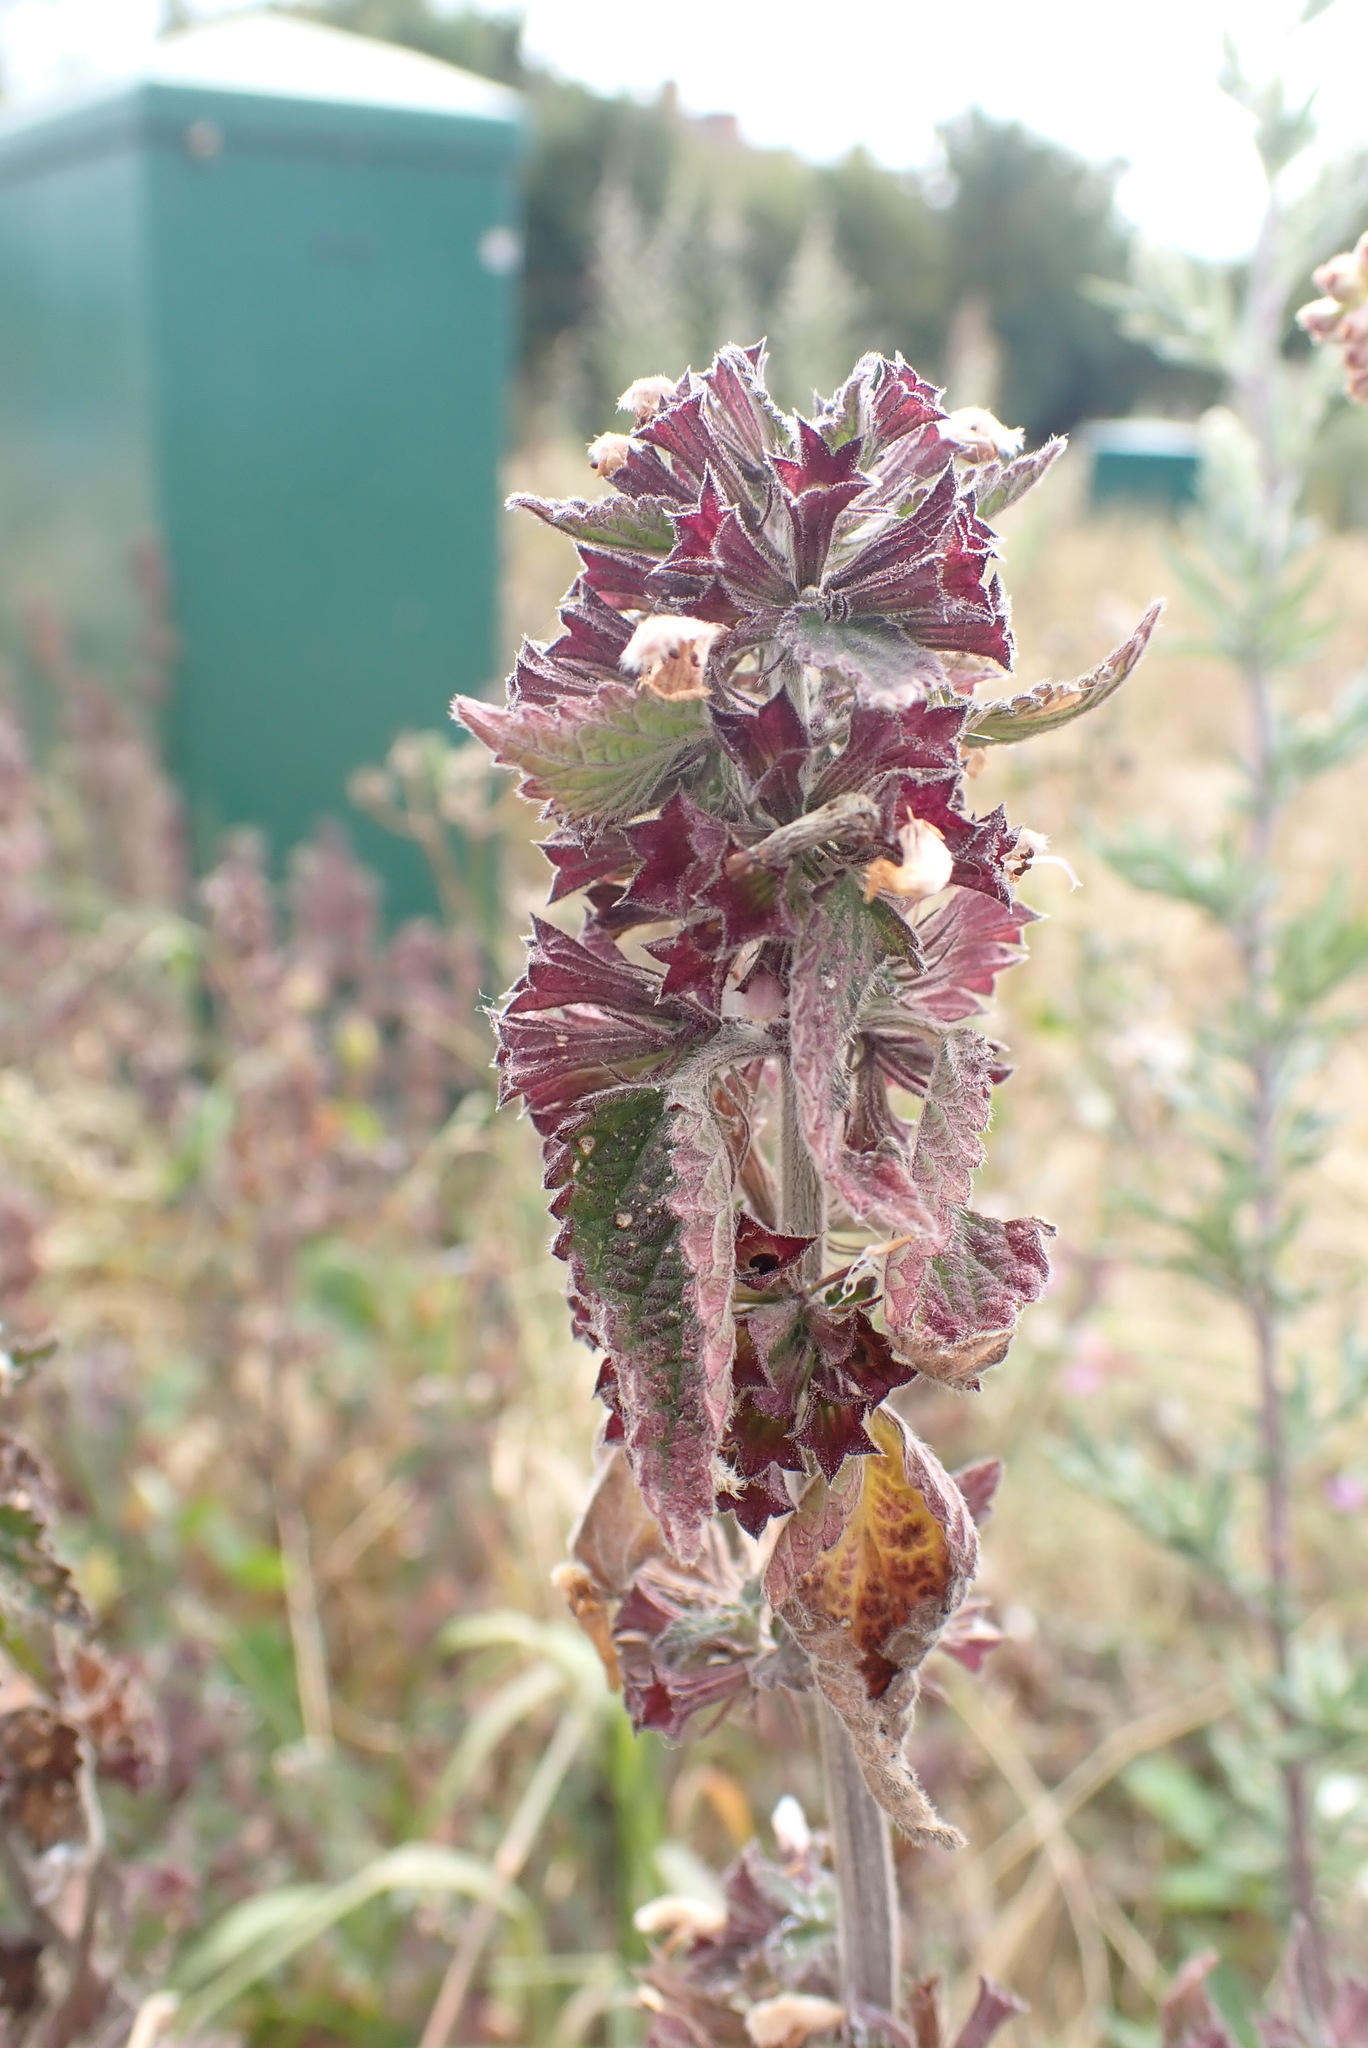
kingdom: Plantae
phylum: Tracheophyta
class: Magnoliopsida
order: Lamiales
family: Lamiaceae
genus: Ballota
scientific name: Ballota nigra
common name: Black horehound
